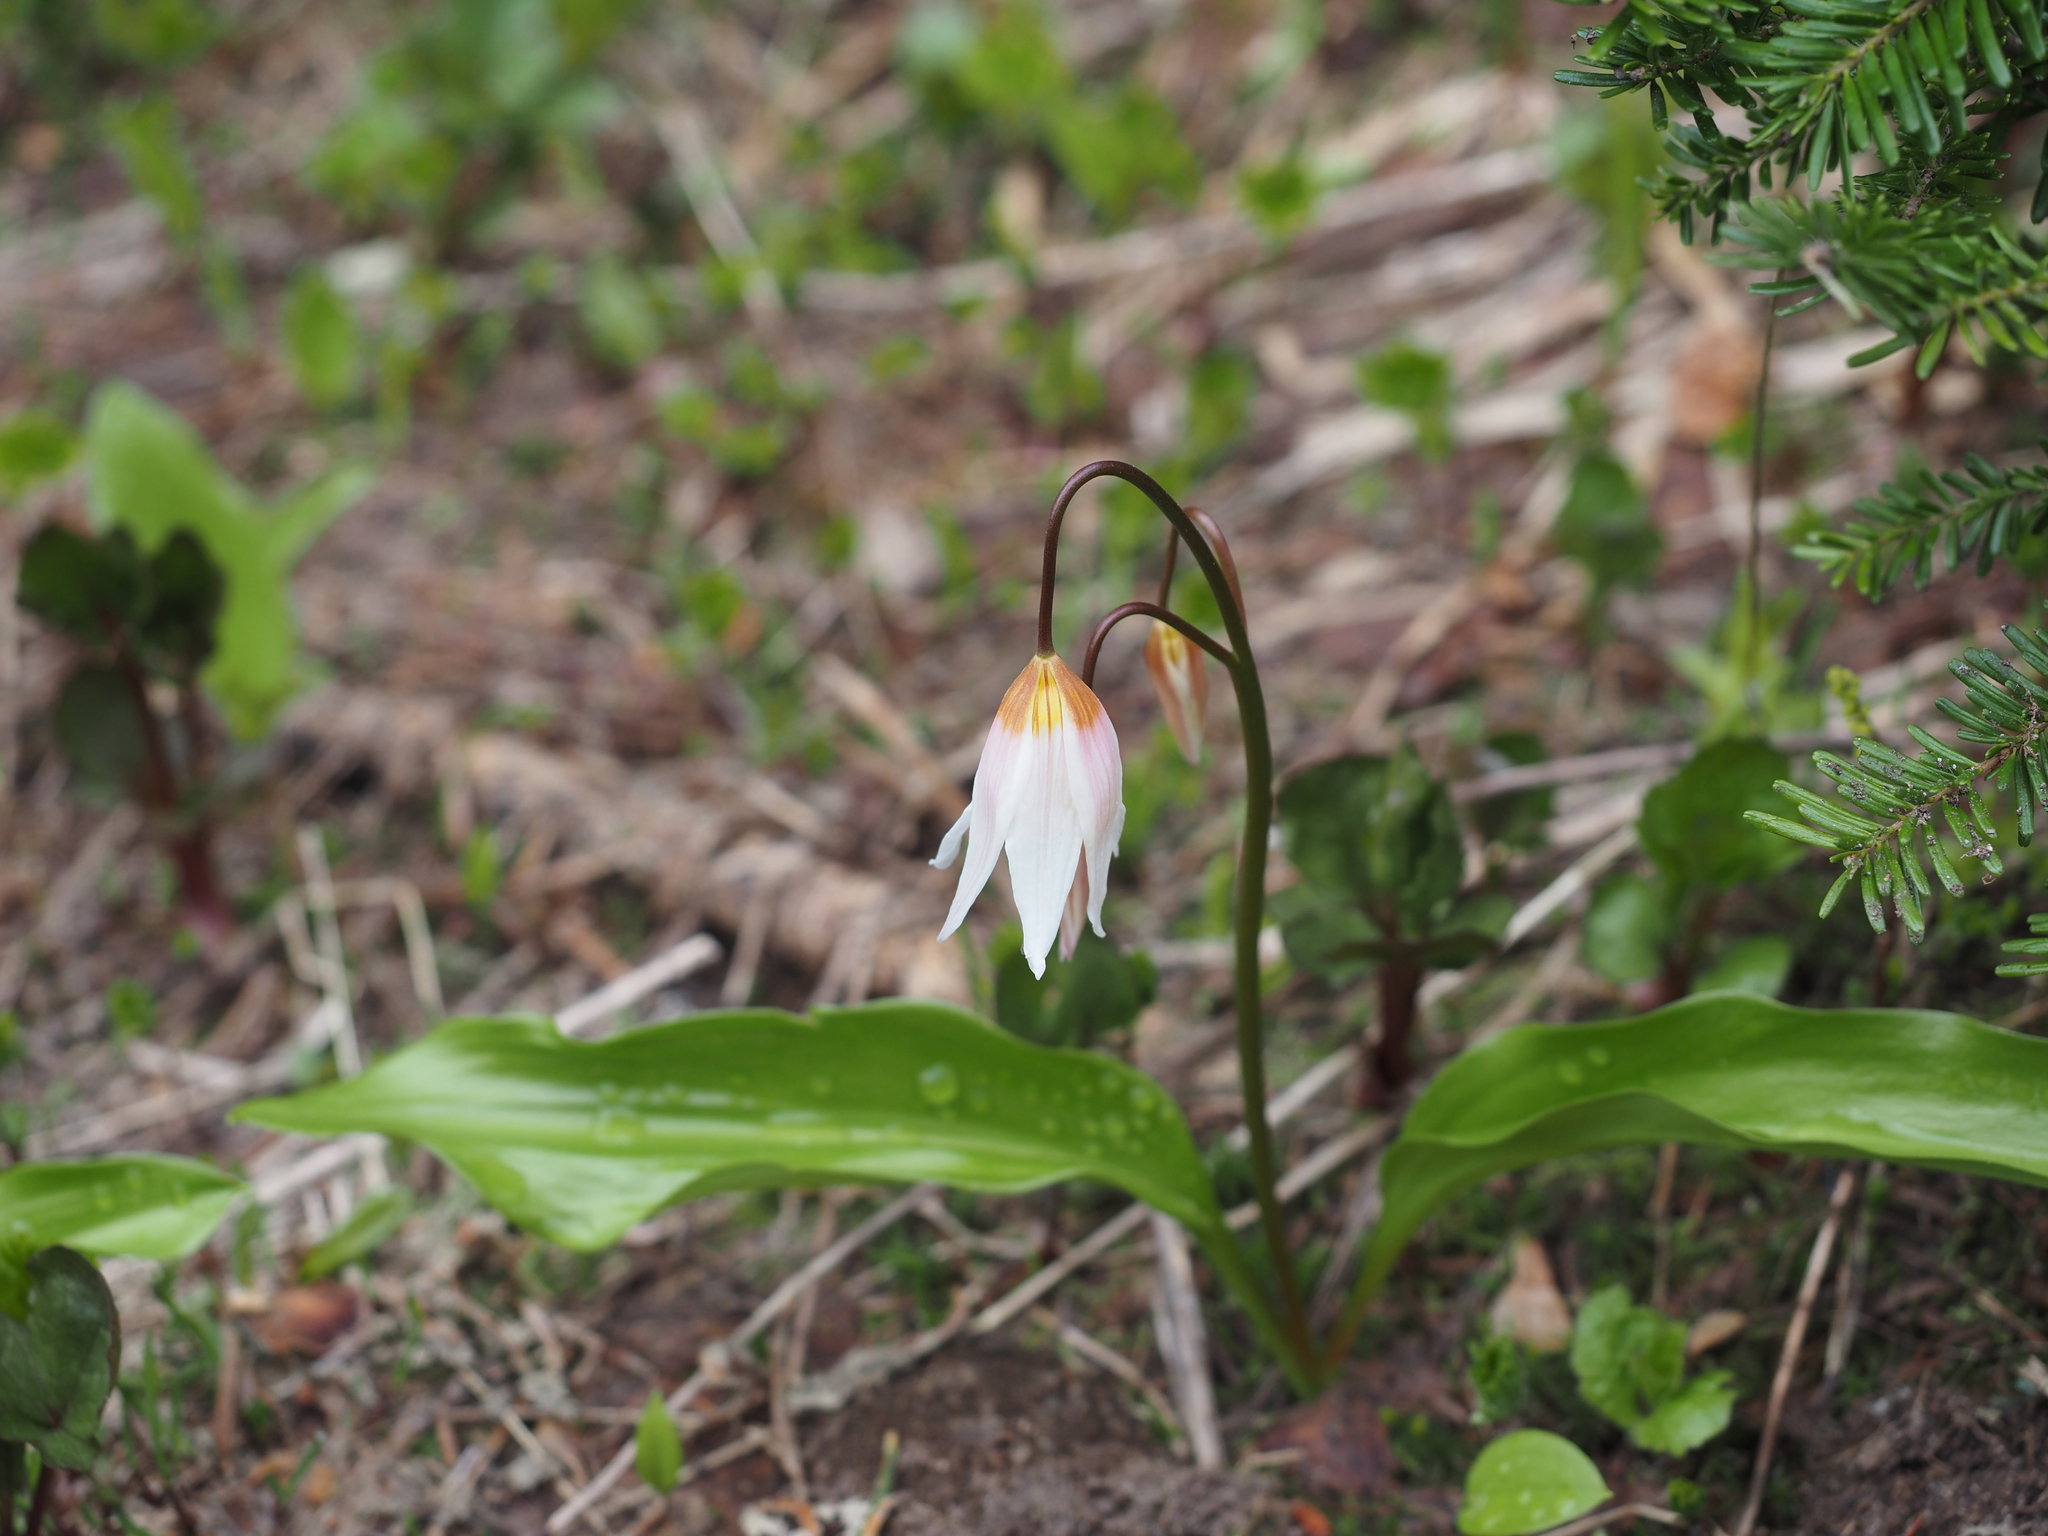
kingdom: Plantae
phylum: Tracheophyta
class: Liliopsida
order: Liliales
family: Liliaceae
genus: Erythronium
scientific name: Erythronium montanum
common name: Avalanche lily
